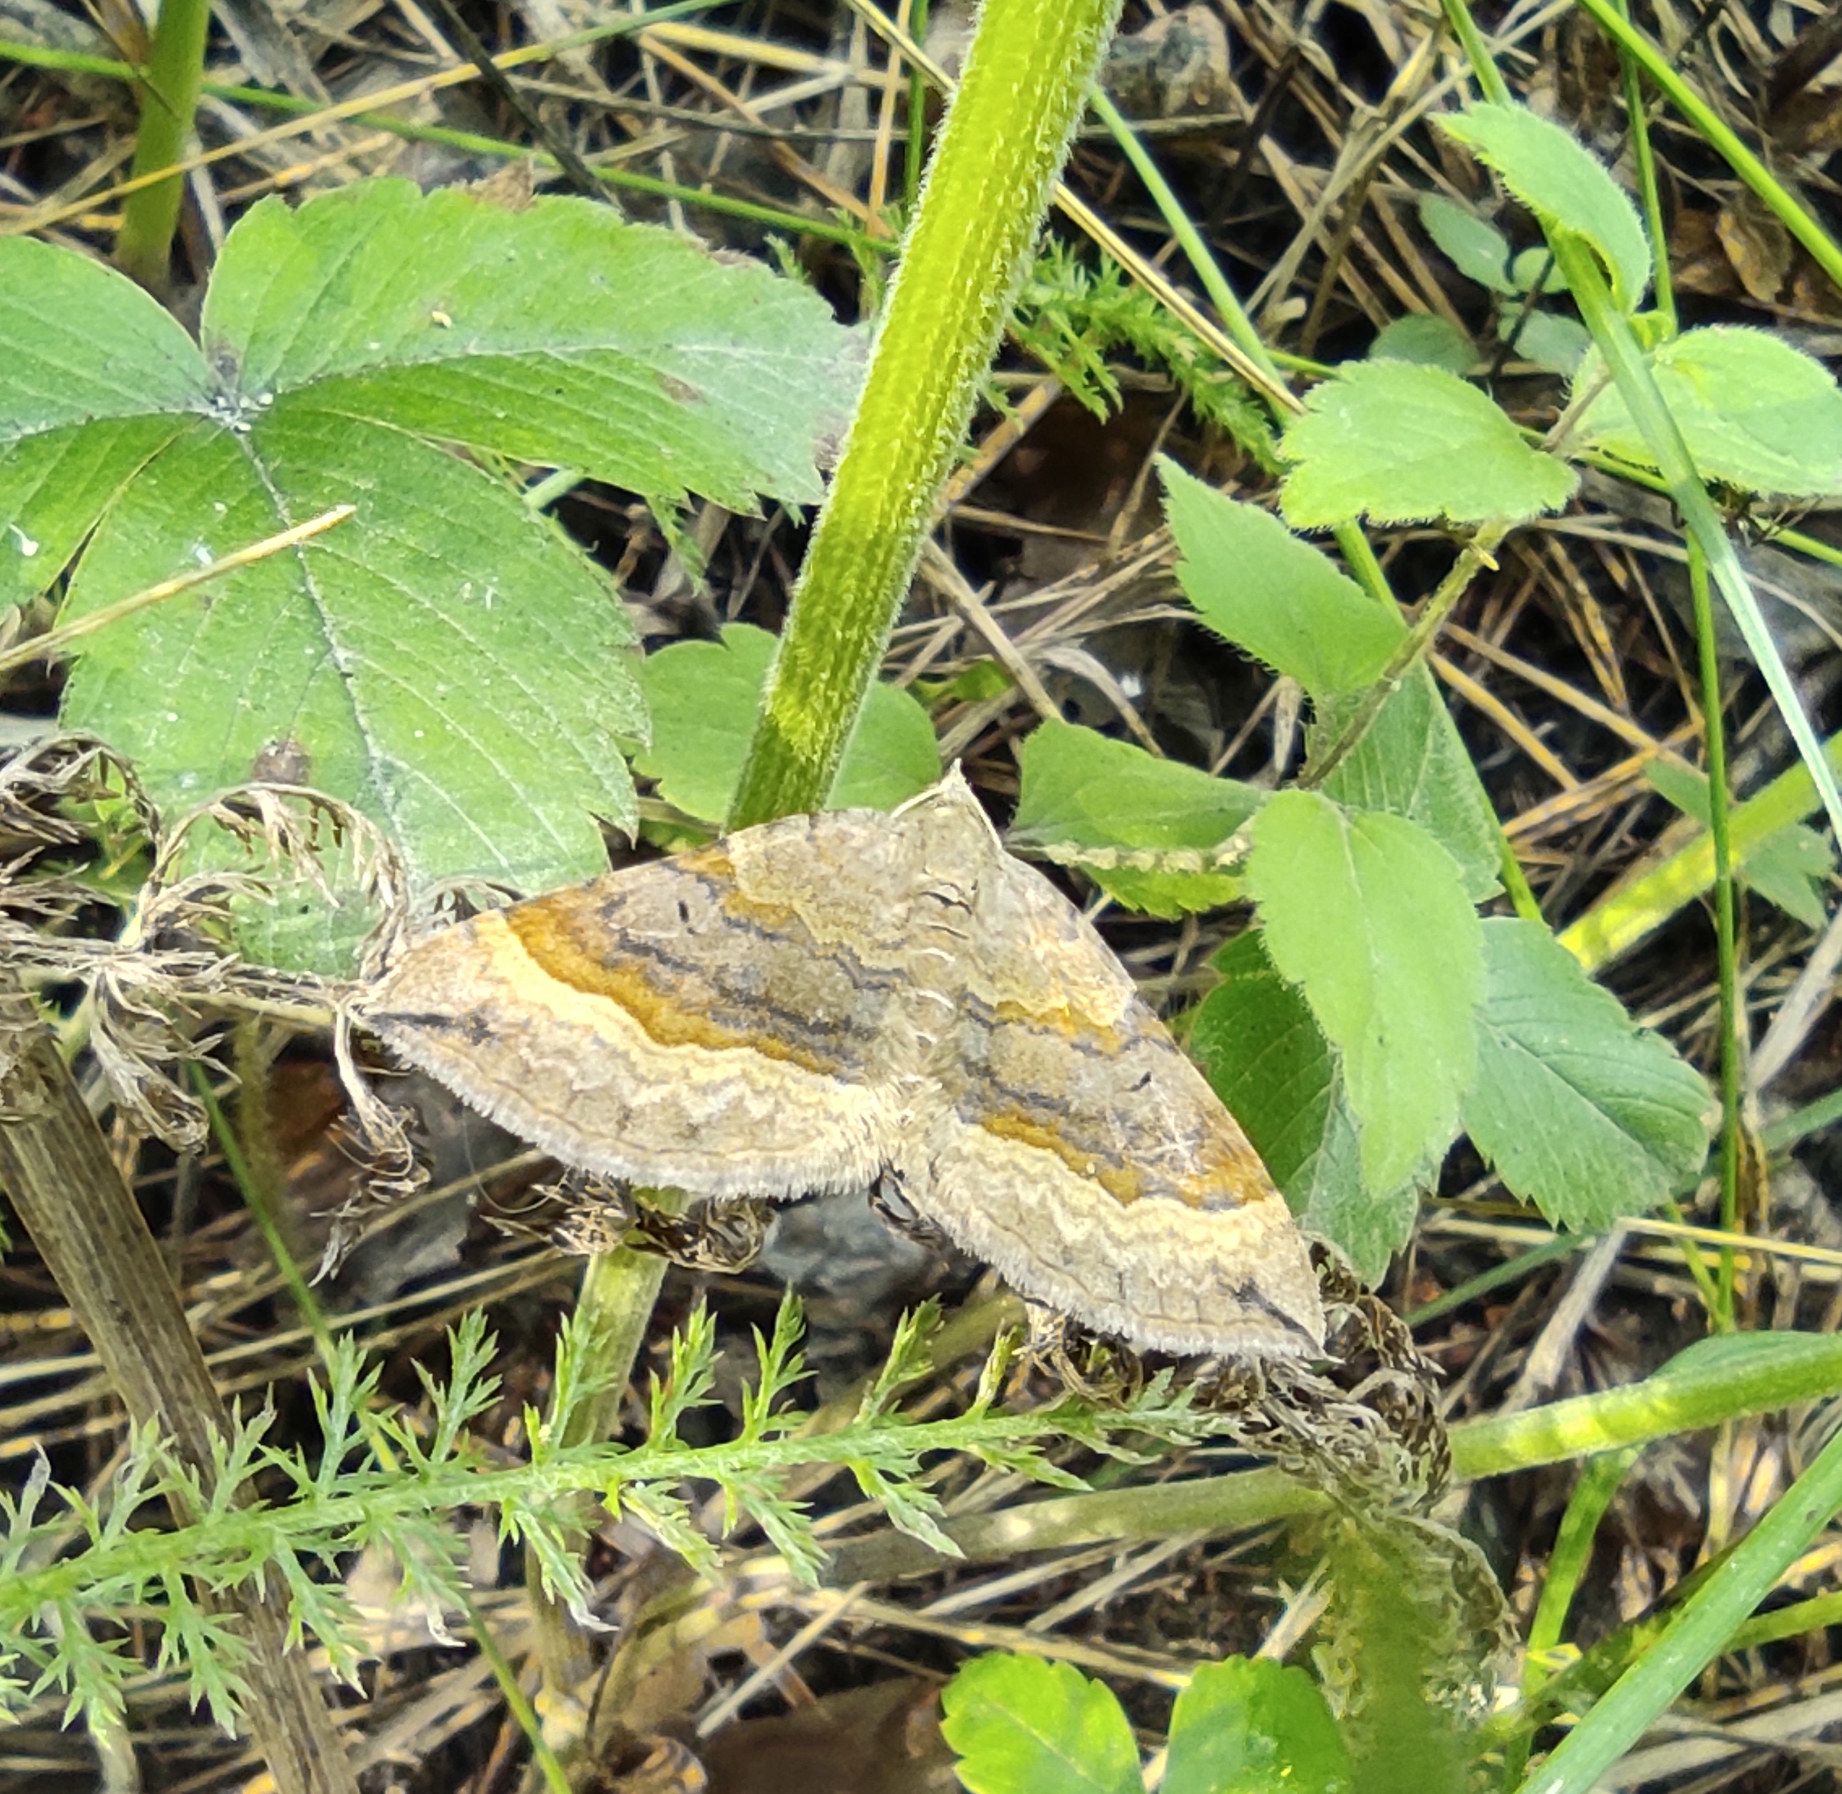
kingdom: Animalia
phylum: Arthropoda
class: Insecta
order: Lepidoptera
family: Geometridae
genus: Scotopteryx
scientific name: Scotopteryx chenopodiata
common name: Shaded broad-bar
